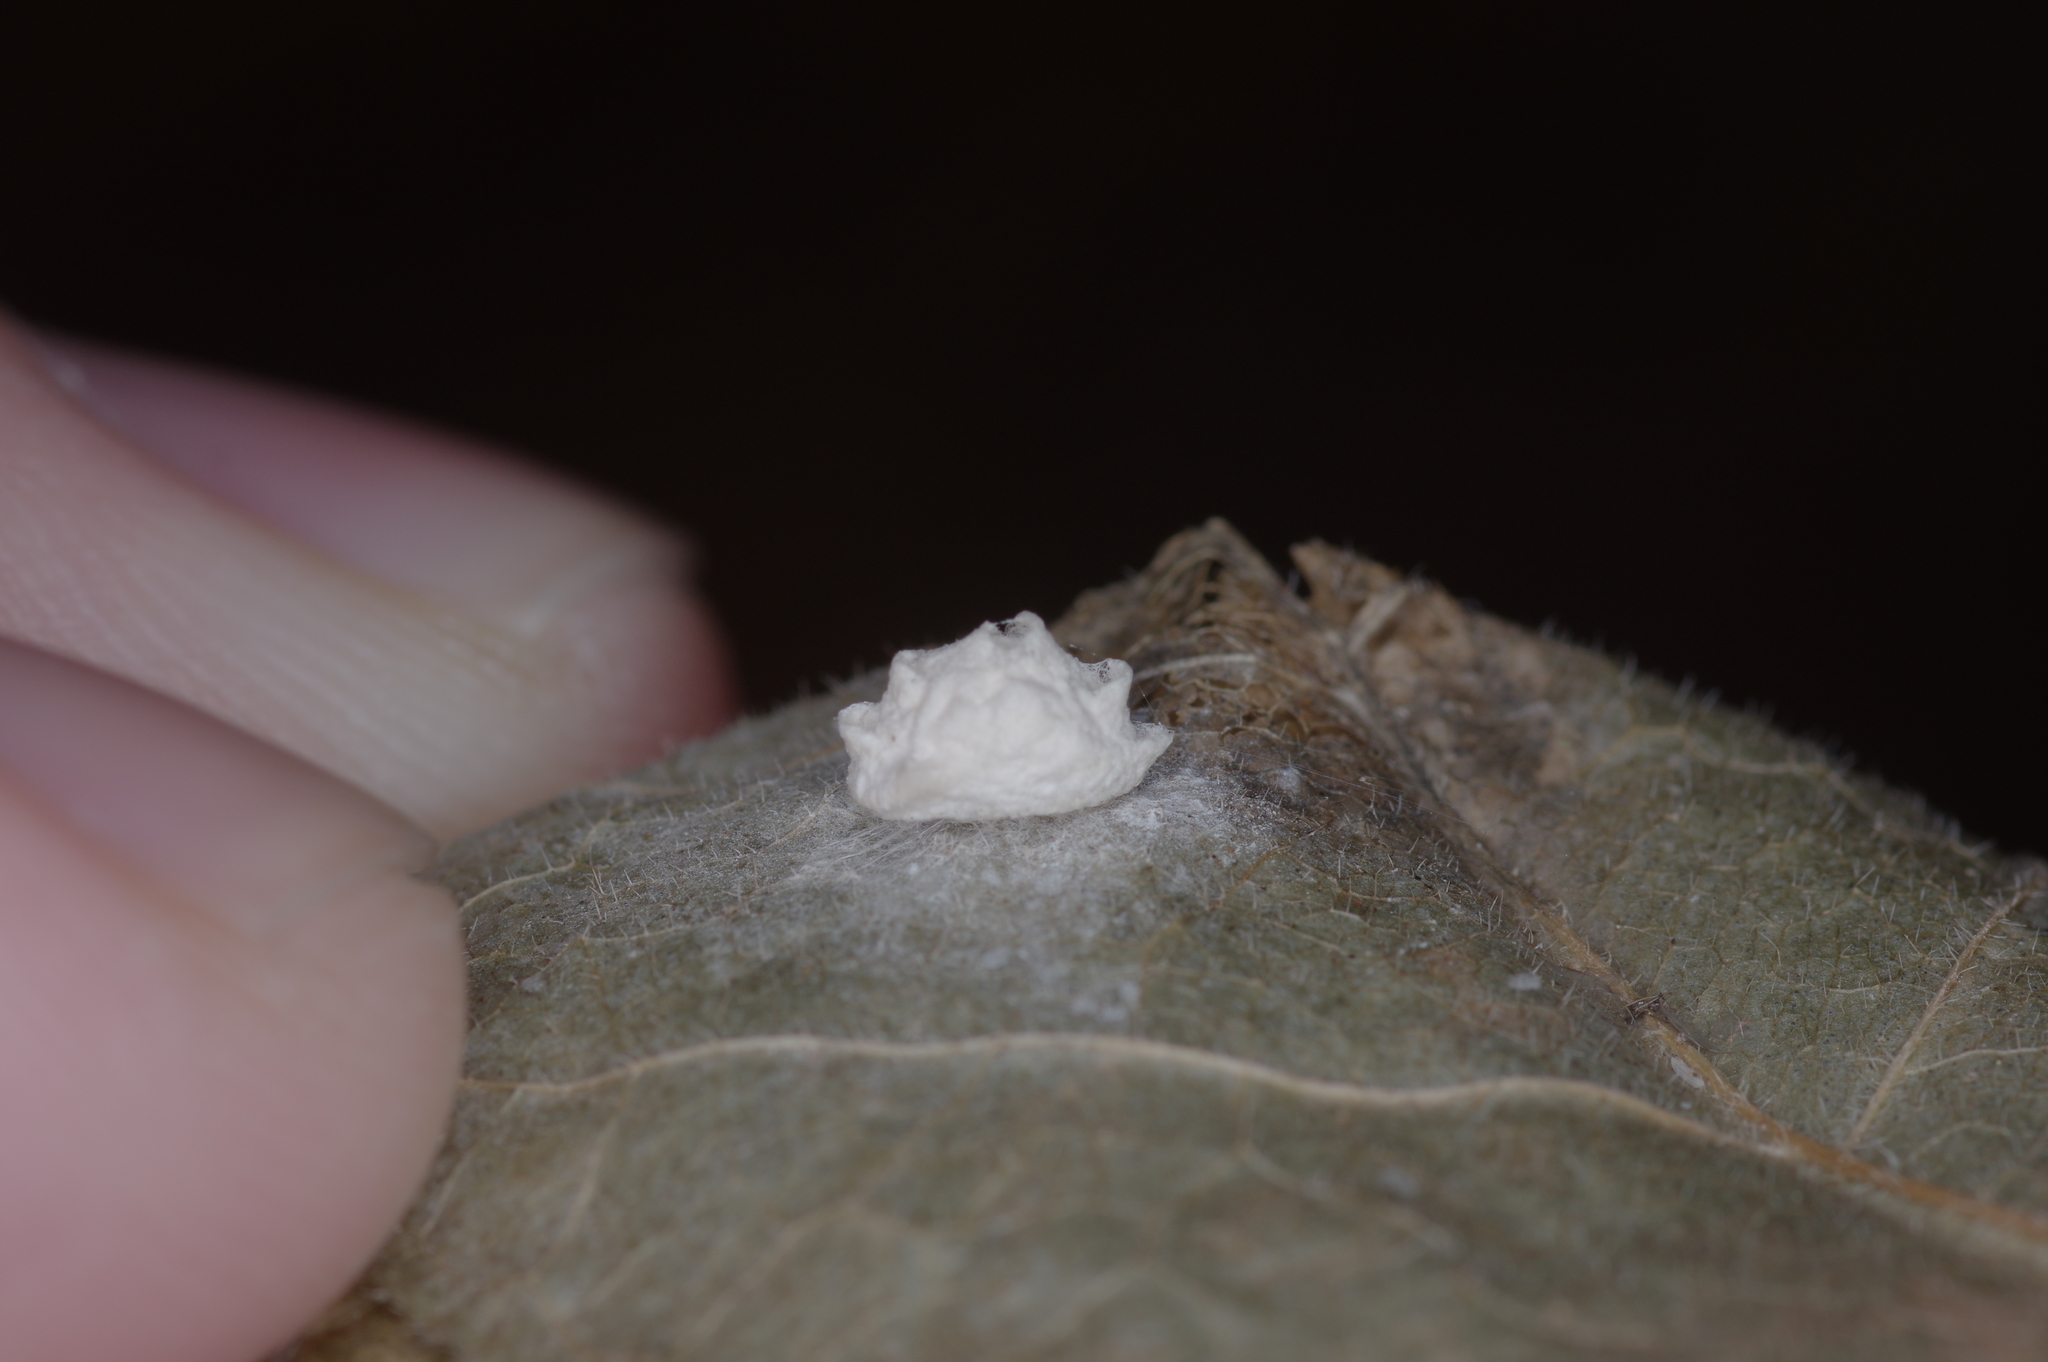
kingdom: Animalia
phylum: Arthropoda
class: Insecta
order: Lepidoptera
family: Epipyropidae
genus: Fulgoraecia
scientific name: Fulgoraecia exigua
